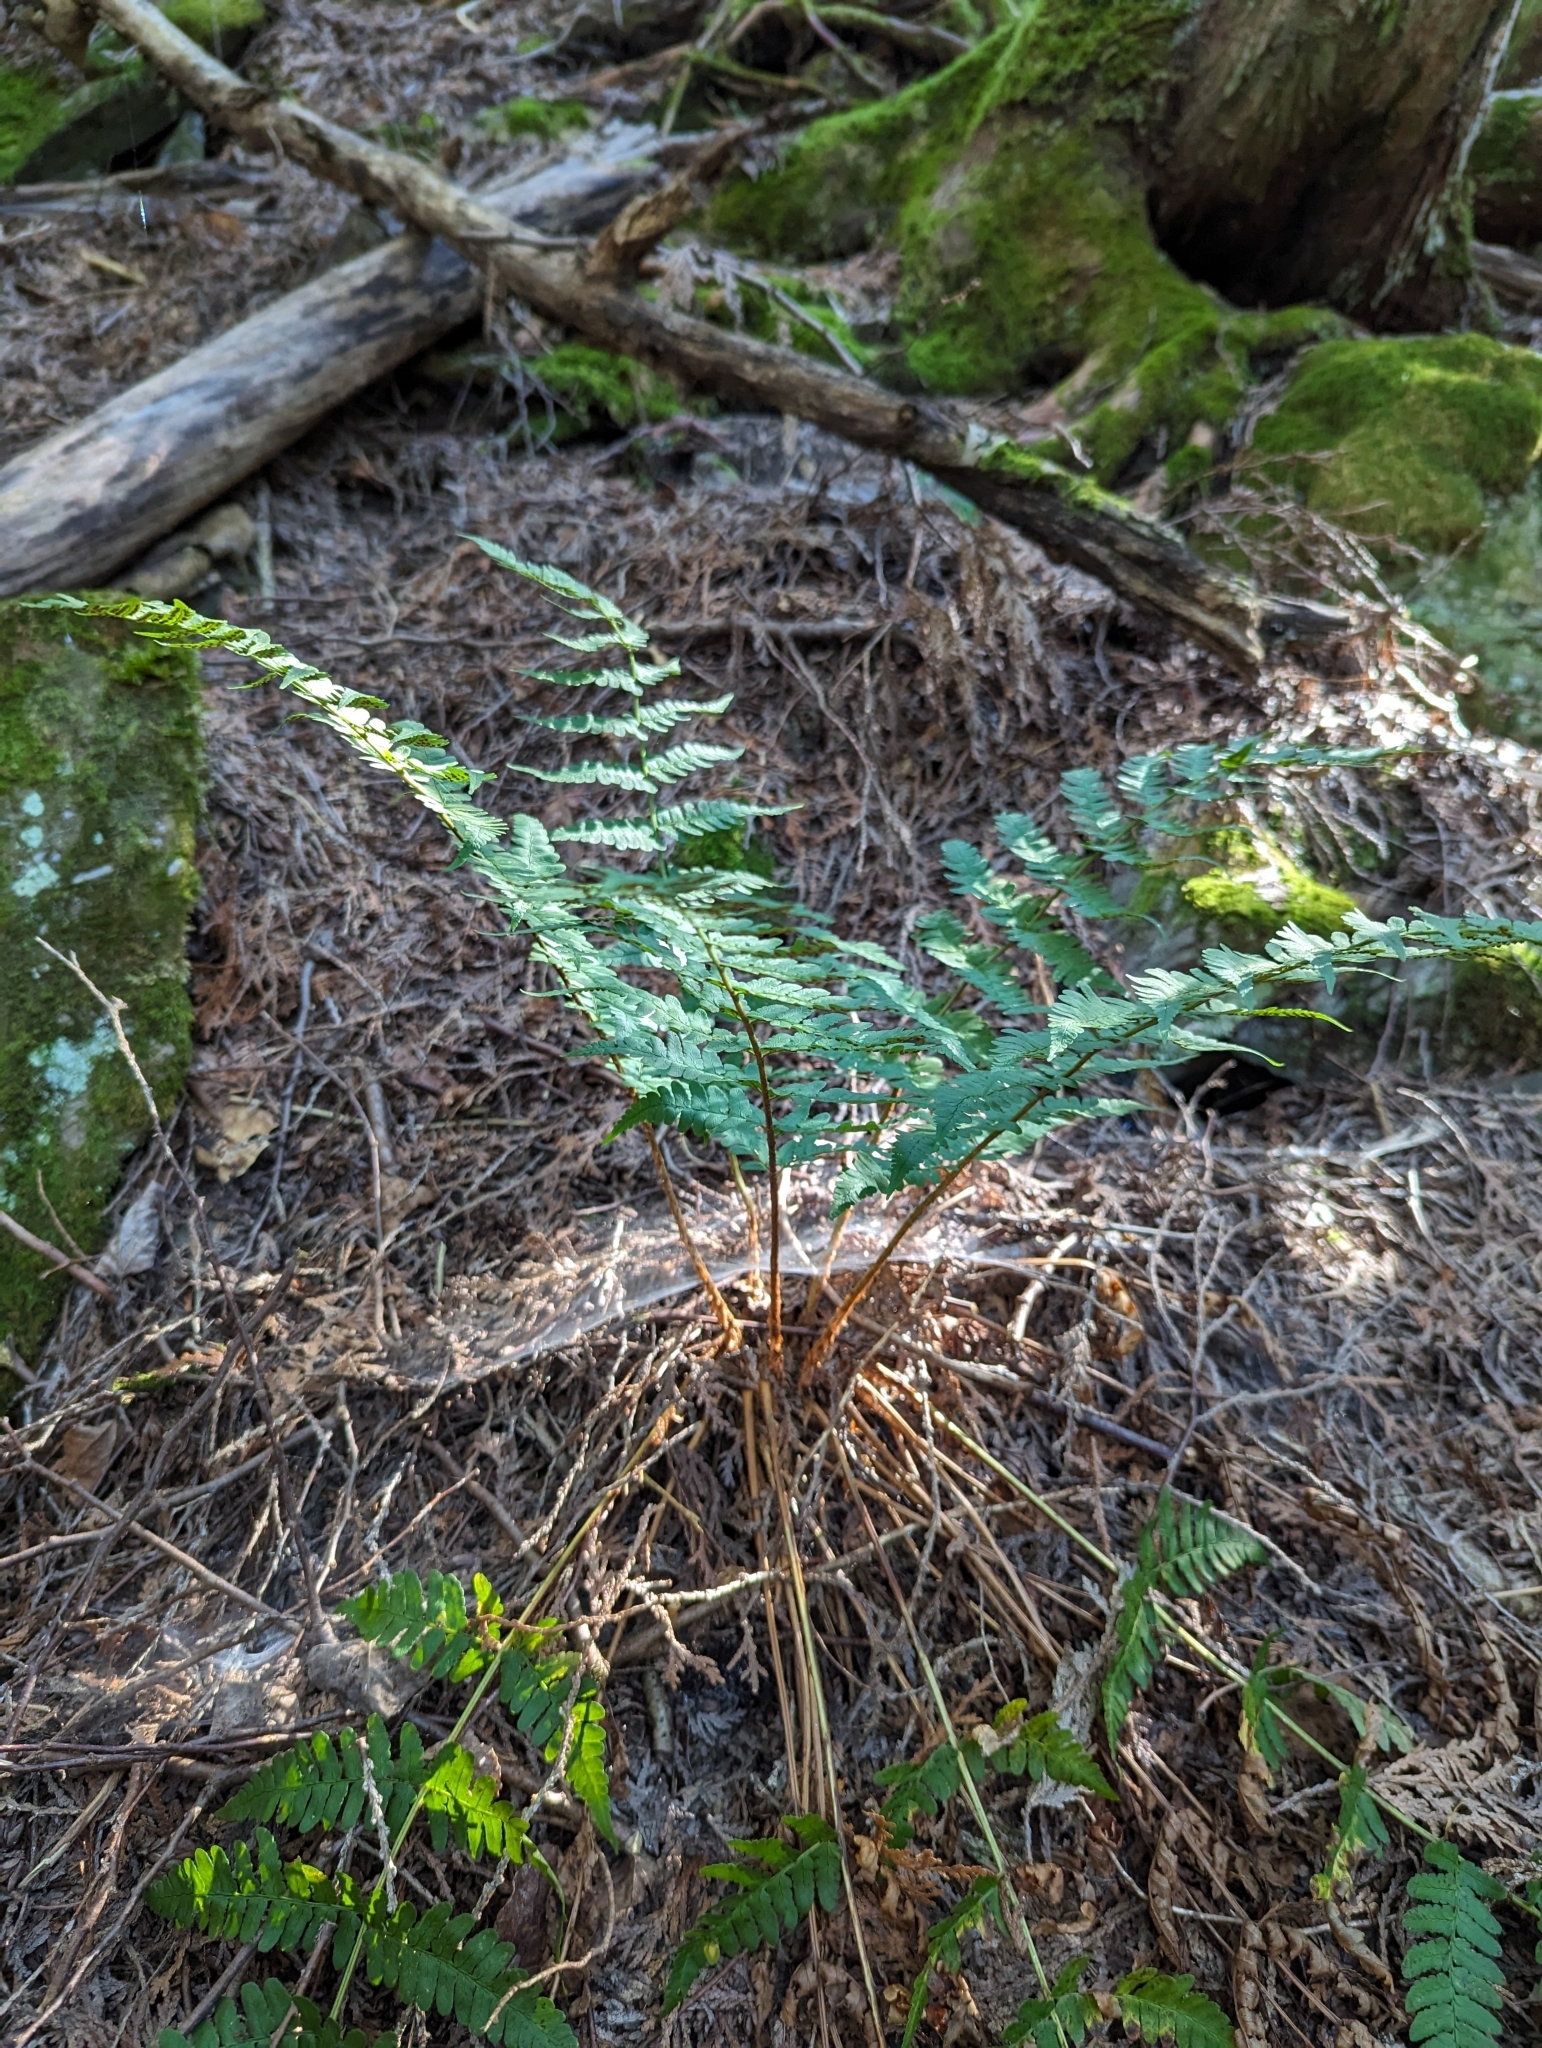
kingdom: Plantae
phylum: Tracheophyta
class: Polypodiopsida
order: Polypodiales
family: Dryopteridaceae
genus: Dryopteris
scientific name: Dryopteris marginalis
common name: Marginal wood fern
